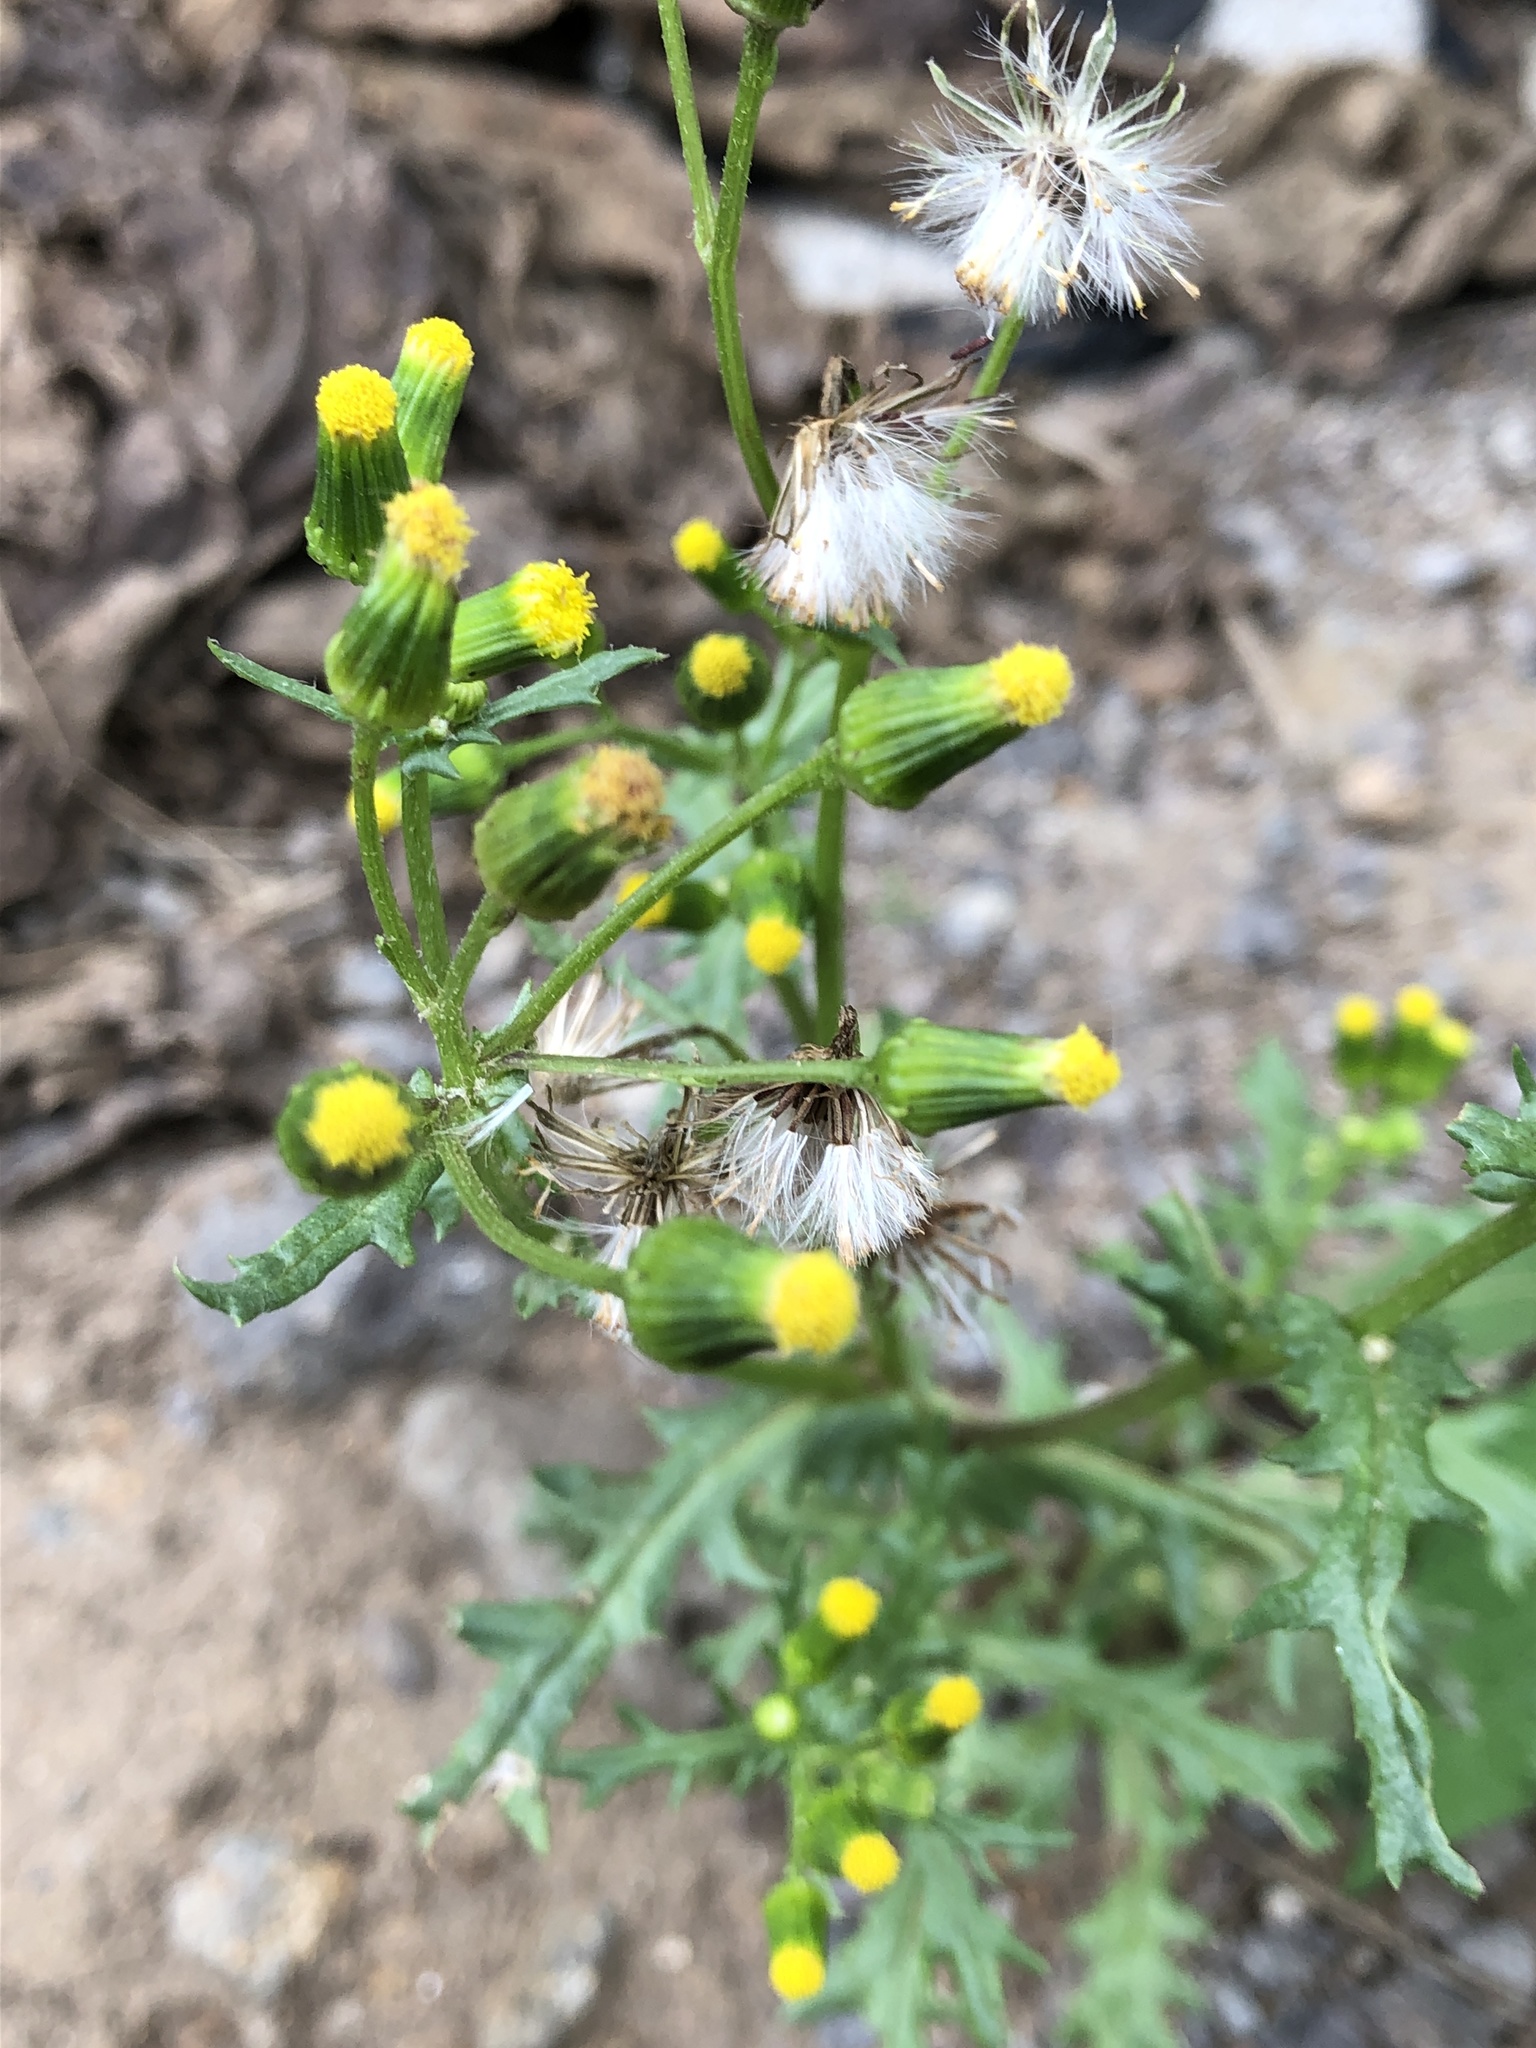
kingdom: Plantae
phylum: Tracheophyta
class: Magnoliopsida
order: Asterales
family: Asteraceae
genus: Senecio
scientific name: Senecio vulgaris
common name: Old-man-in-the-spring
